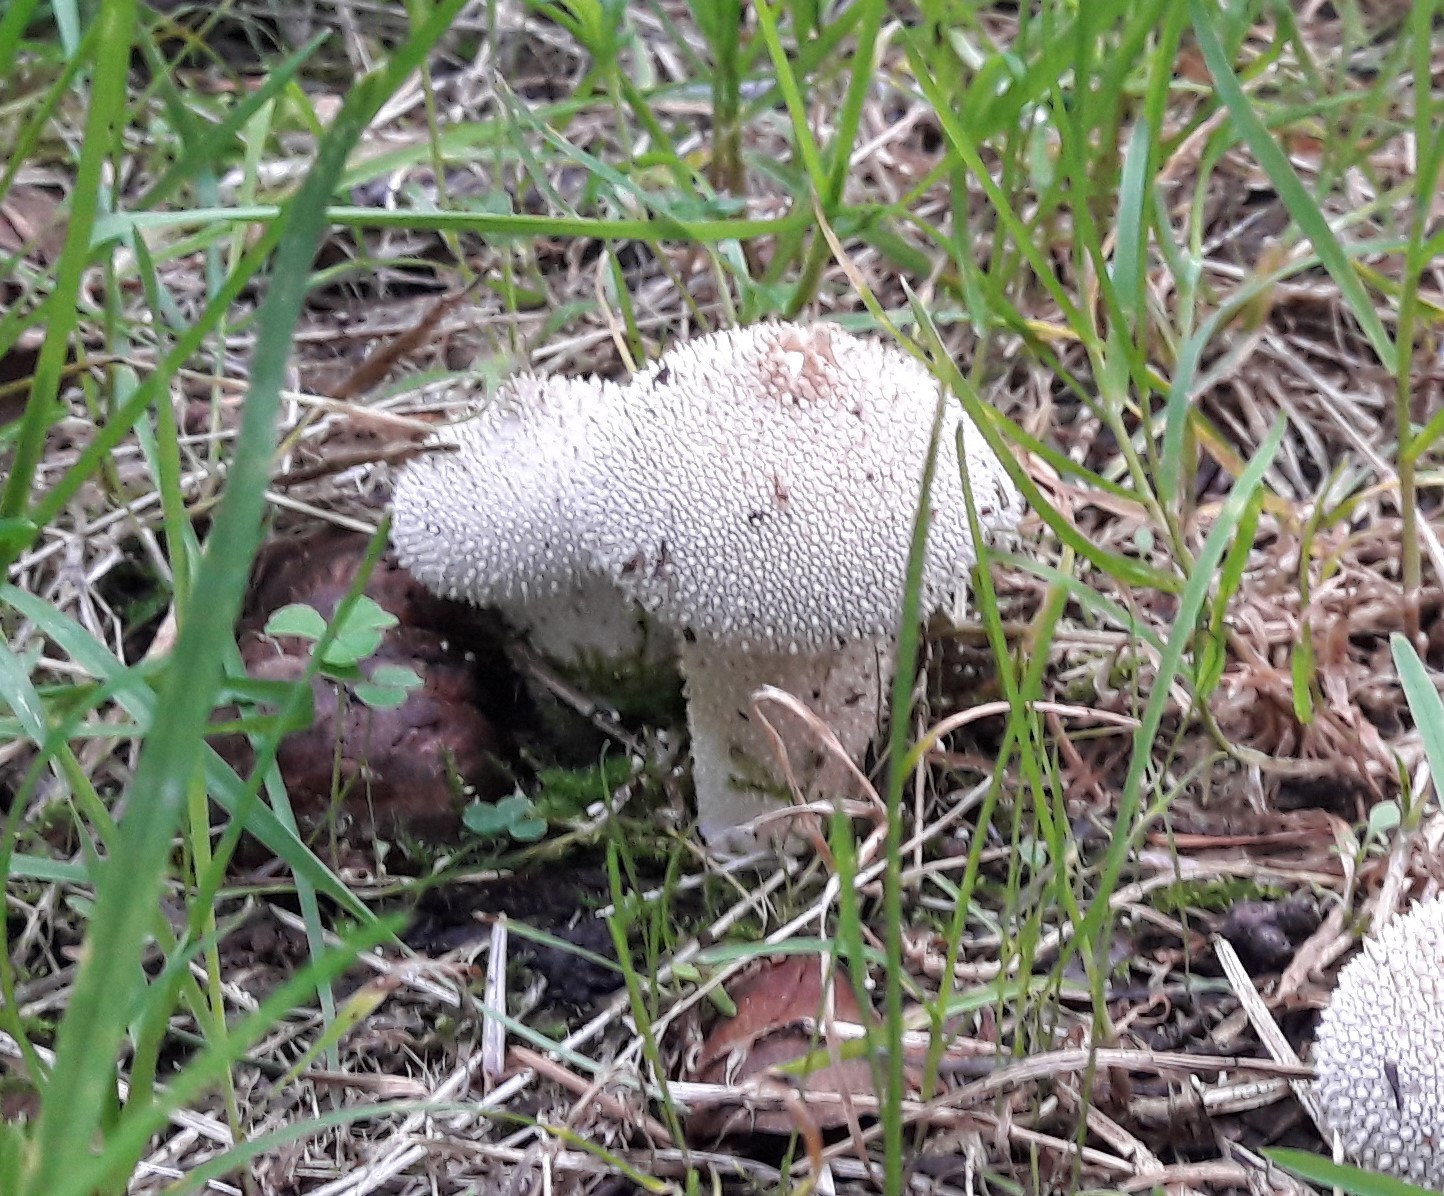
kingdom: Fungi
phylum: Basidiomycota
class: Agaricomycetes
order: Agaricales
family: Lycoperdaceae
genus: Lycoperdon
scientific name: Lycoperdon perlatum
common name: Common puffball
